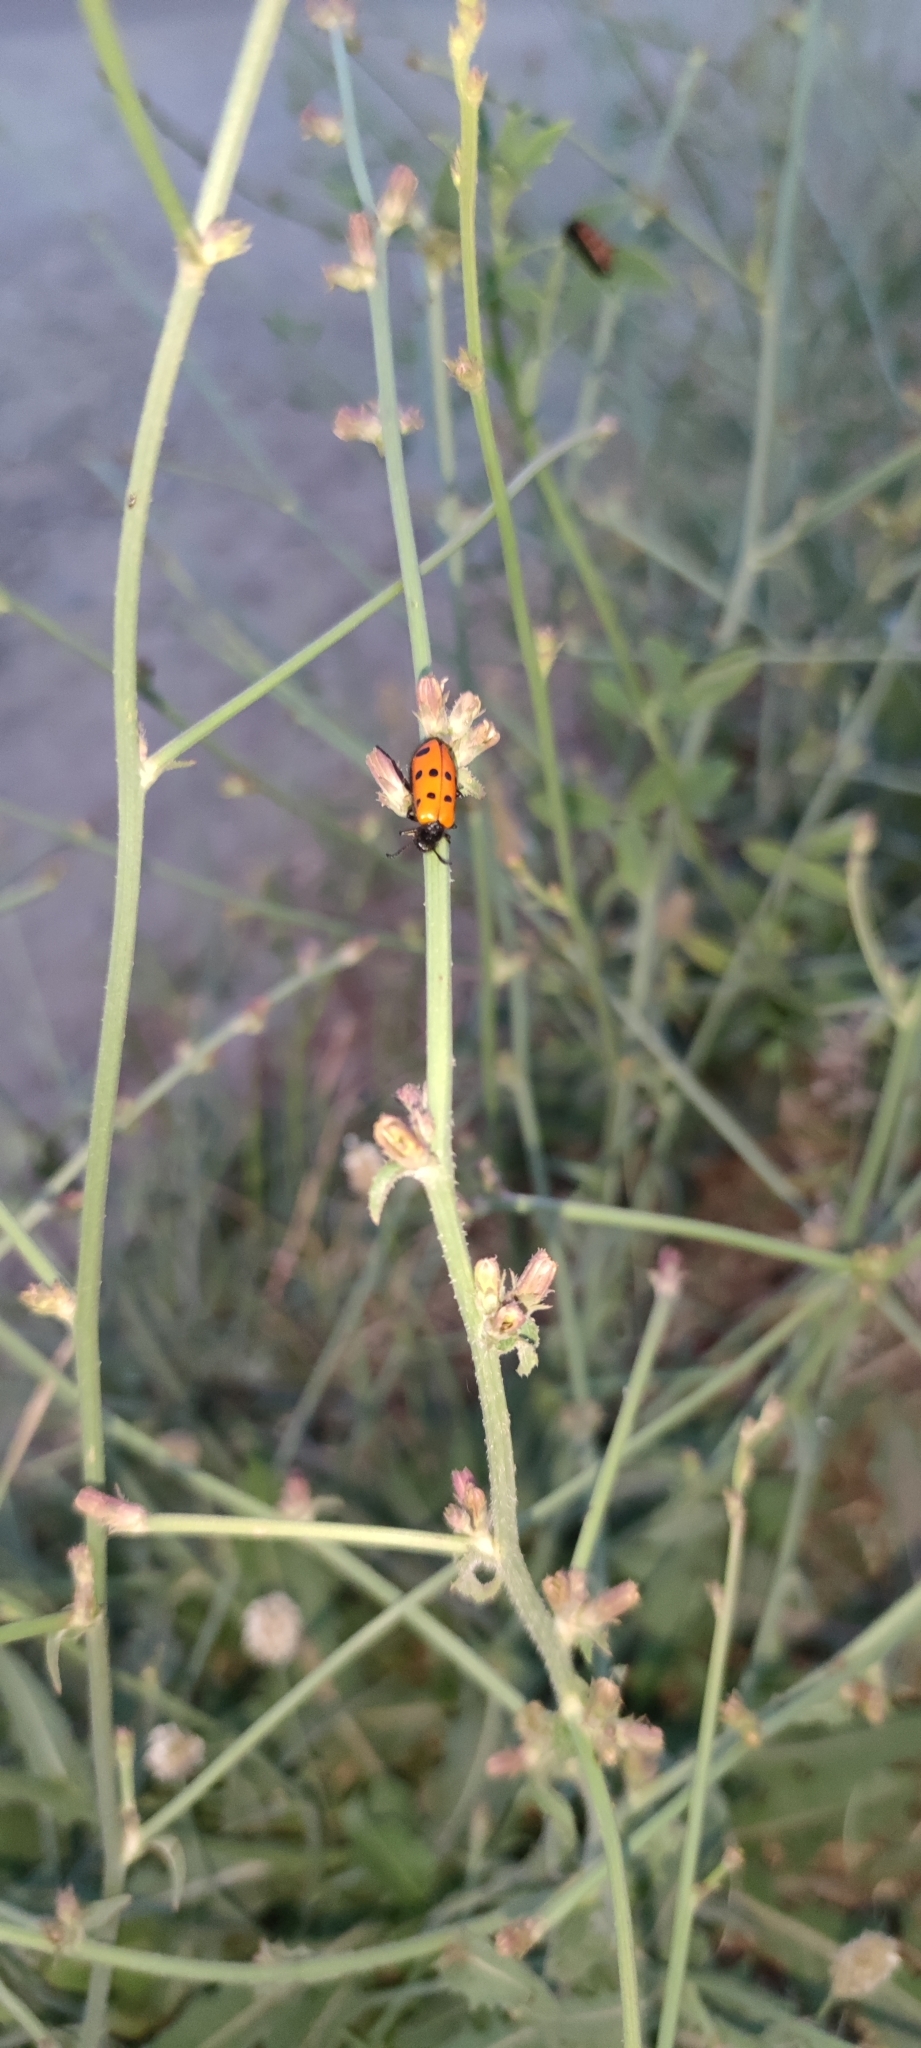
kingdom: Animalia
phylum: Arthropoda
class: Insecta
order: Coleoptera
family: Meloidae
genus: Mylabris
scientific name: Mylabris fabricii
